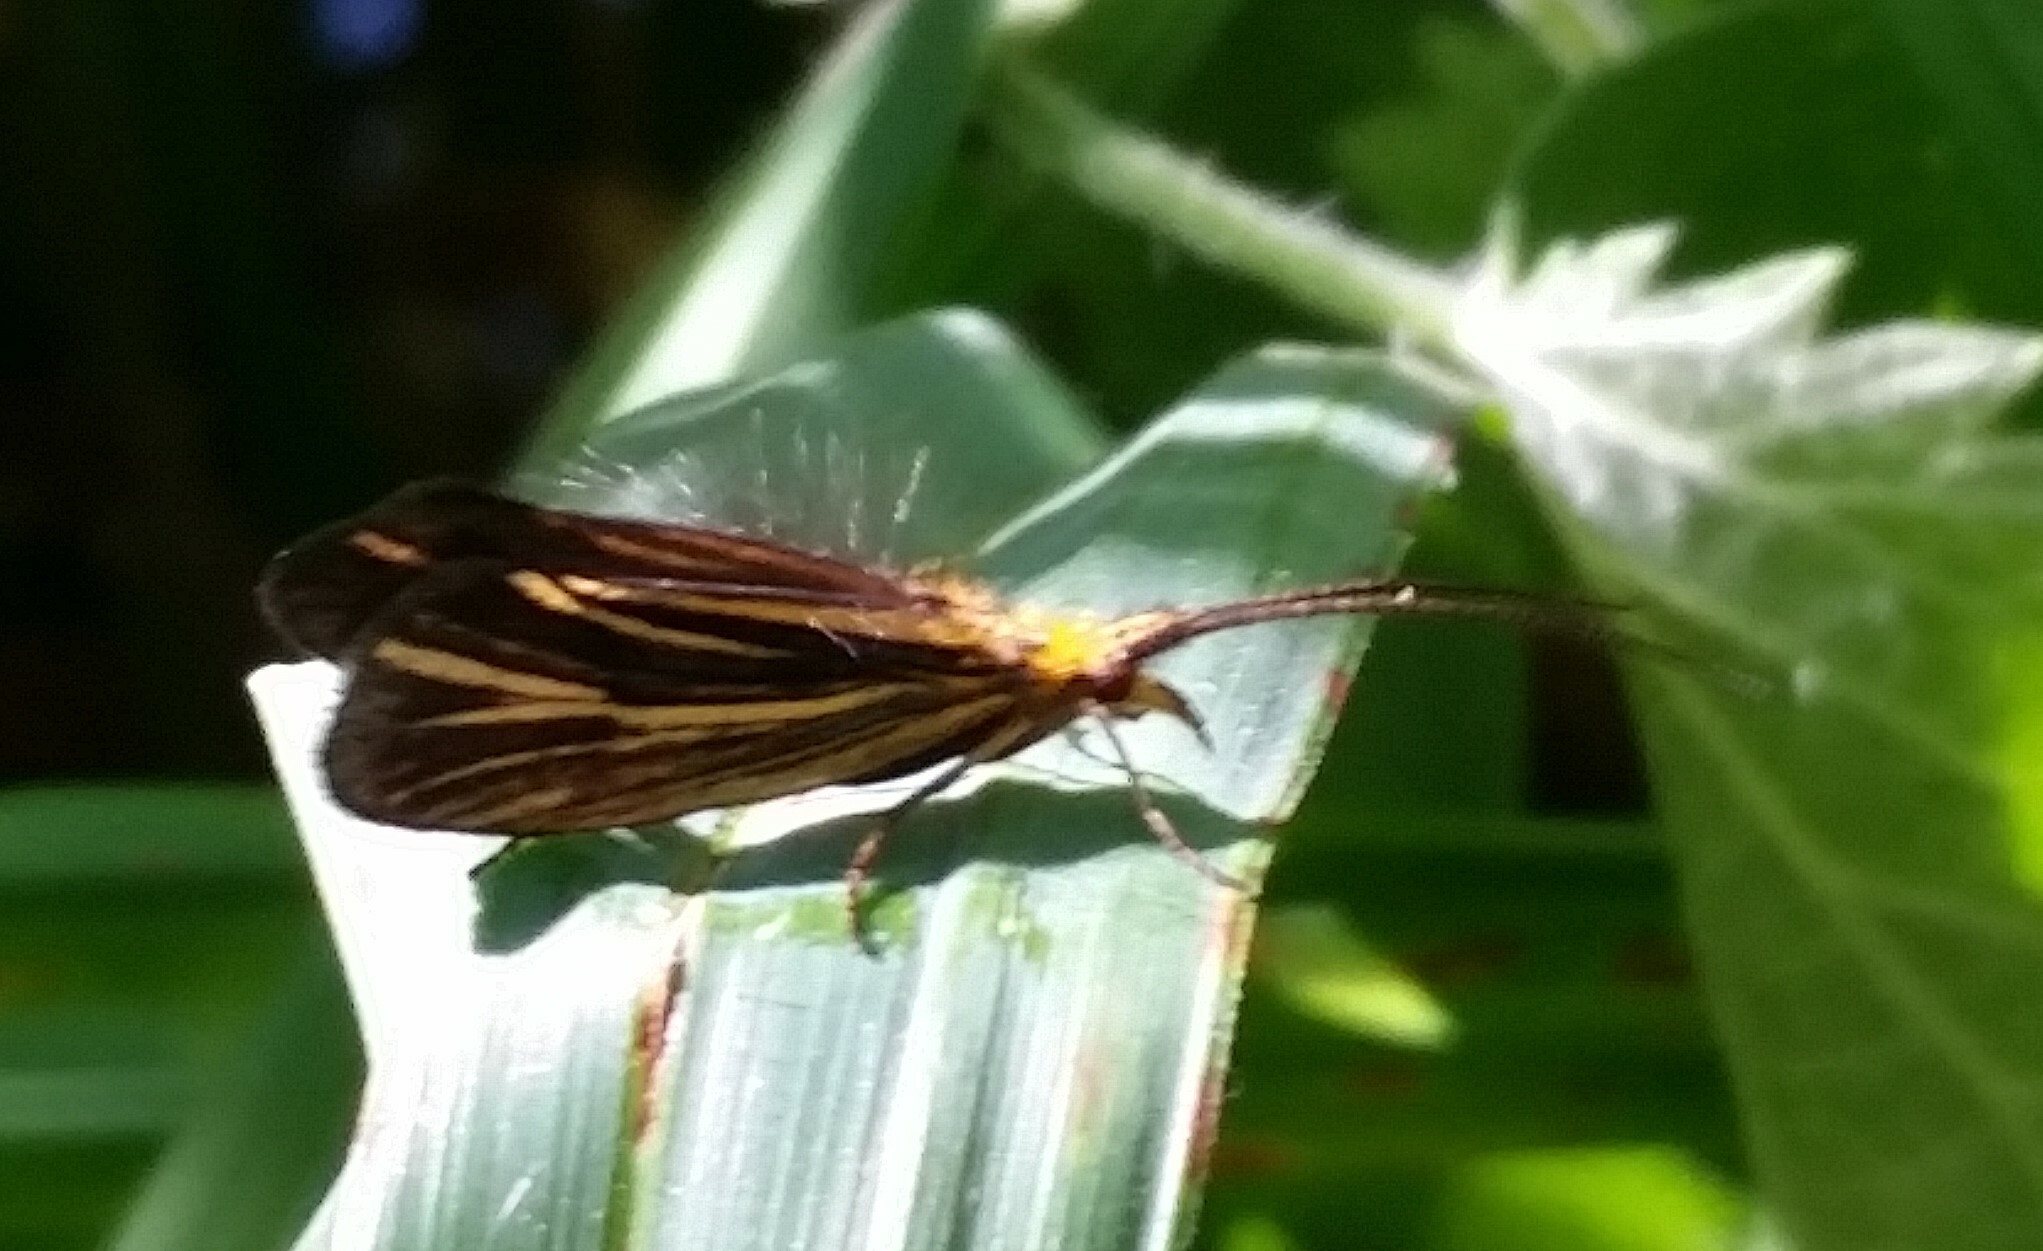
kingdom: Animalia
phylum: Arthropoda
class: Insecta
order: Trichoptera
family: Odontoceridae
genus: Nerophilus
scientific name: Nerophilus californicus
